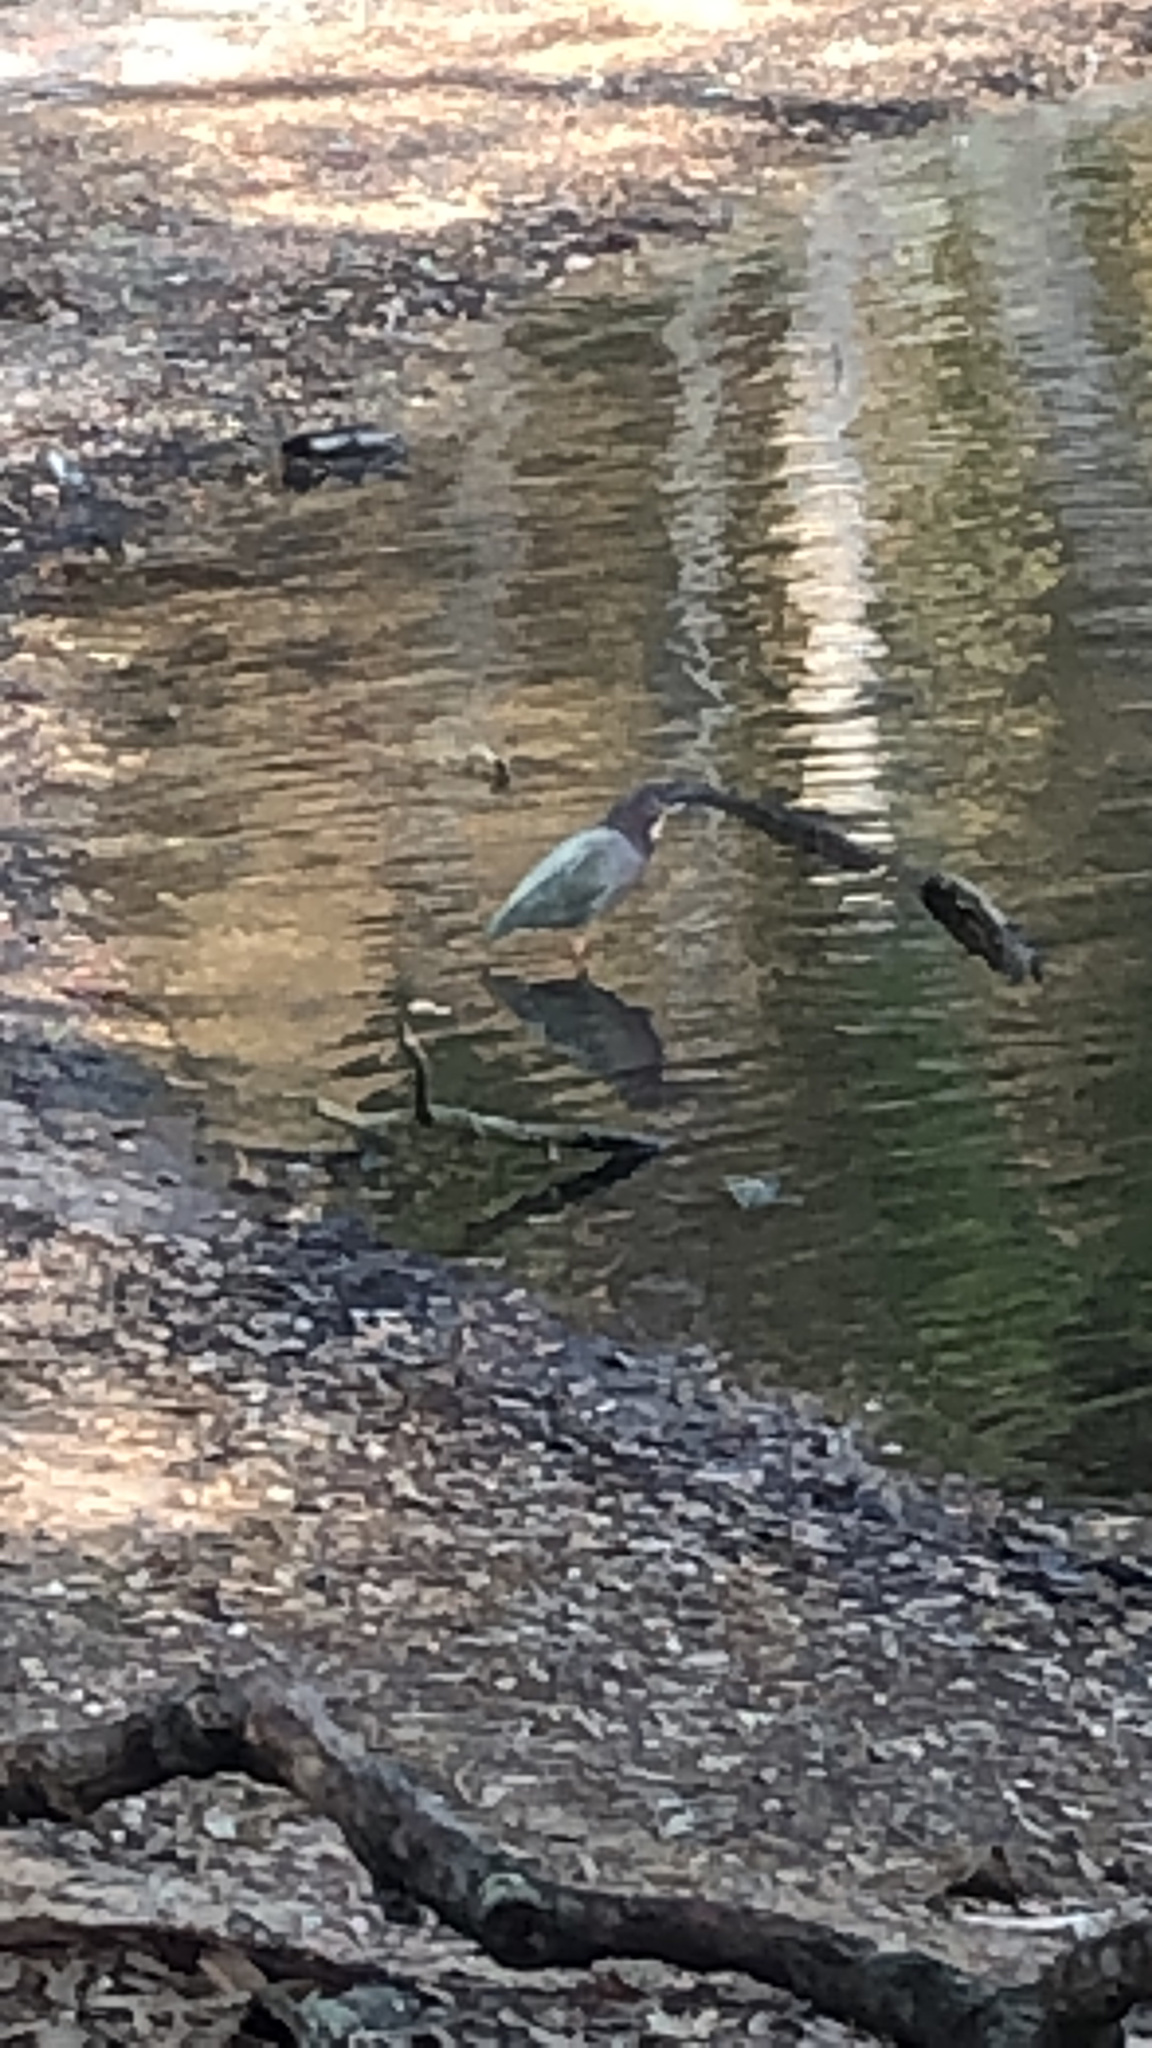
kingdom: Animalia
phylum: Chordata
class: Aves
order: Pelecaniformes
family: Ardeidae
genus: Butorides
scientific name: Butorides virescens
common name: Green heron
